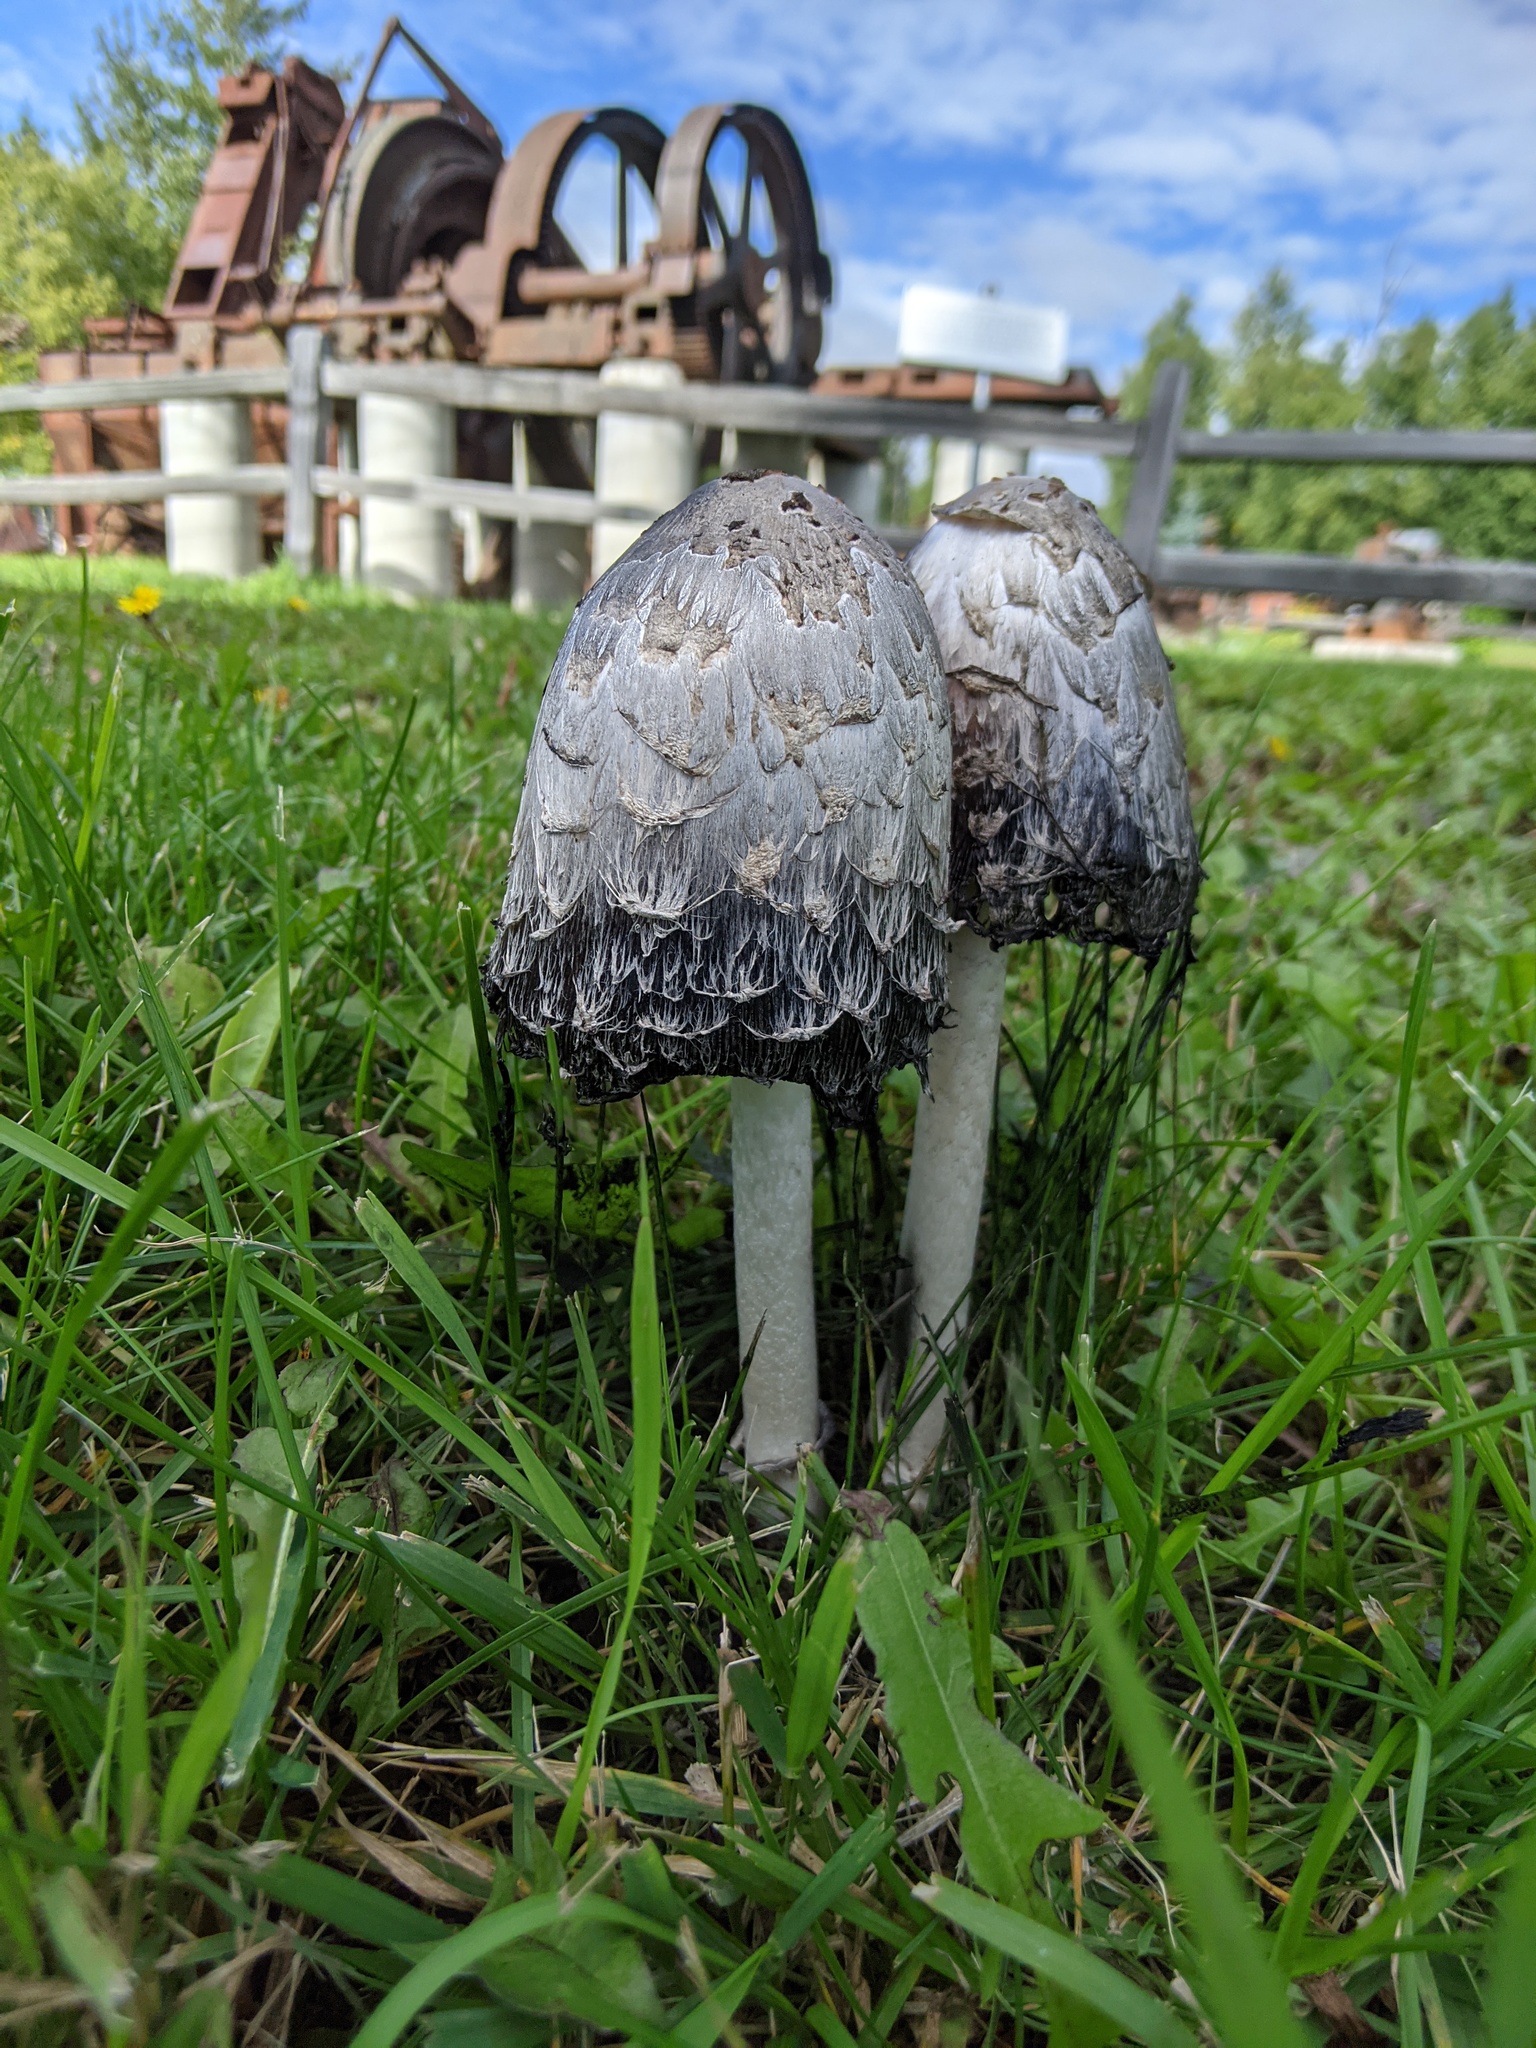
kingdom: Fungi
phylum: Basidiomycota
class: Agaricomycetes
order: Agaricales
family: Agaricaceae
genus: Coprinus
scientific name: Coprinus comatus
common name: Lawyer's wig
